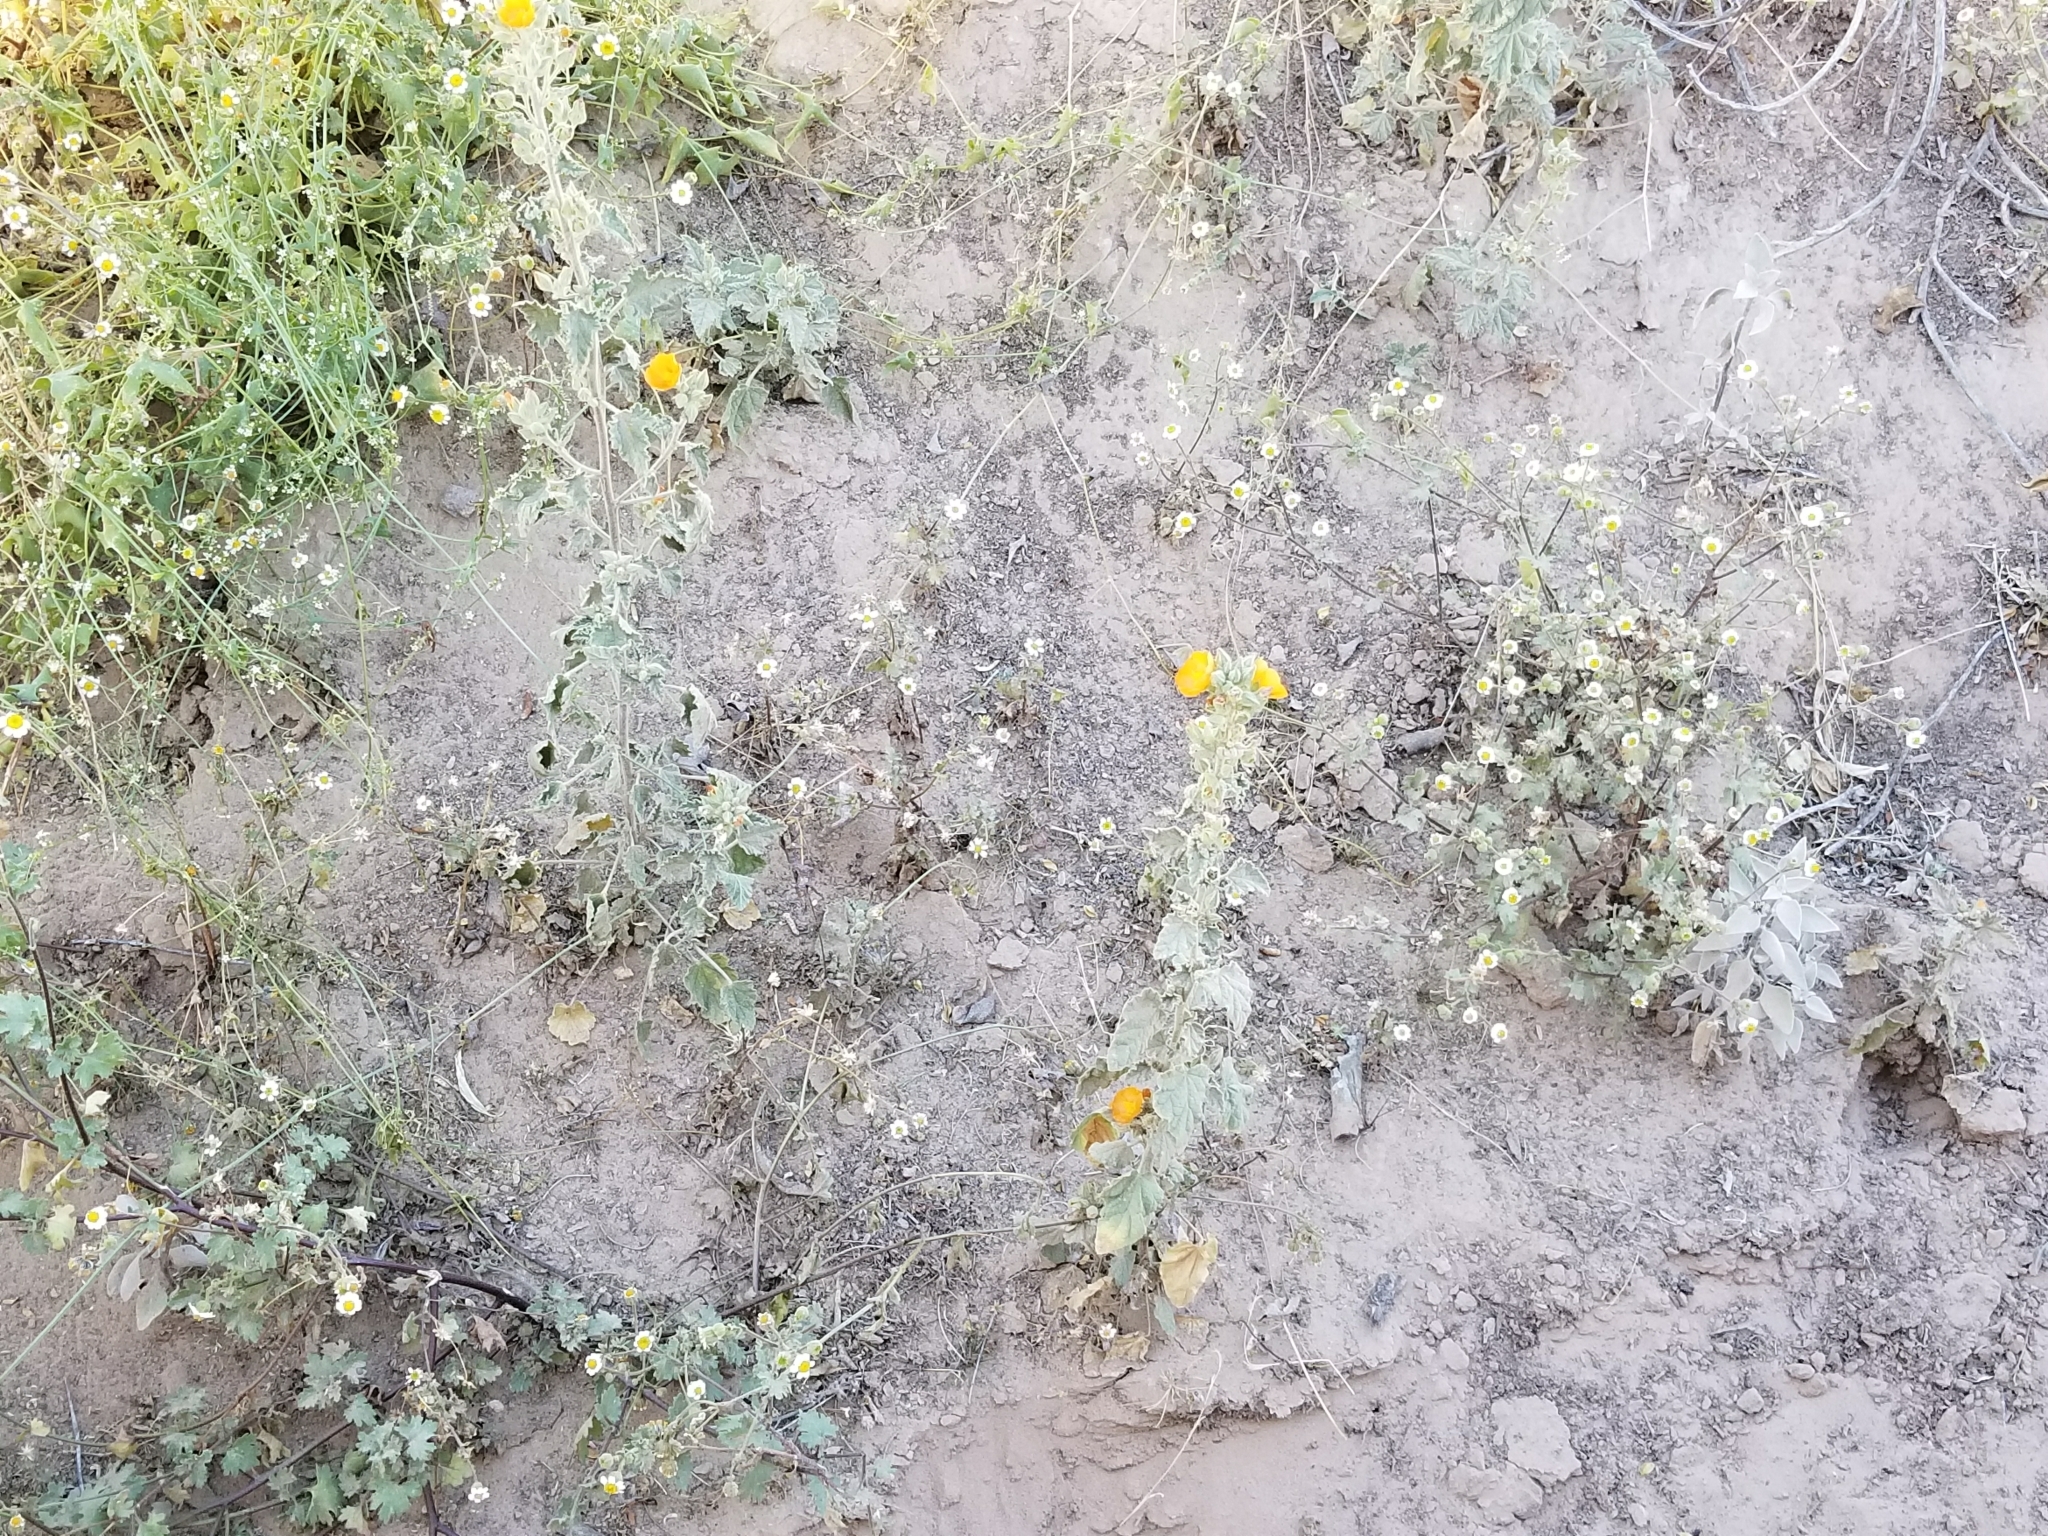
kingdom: Plantae
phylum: Tracheophyta
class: Magnoliopsida
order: Malvales
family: Malvaceae
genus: Sphaeralcea
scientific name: Sphaeralcea orcuttii
